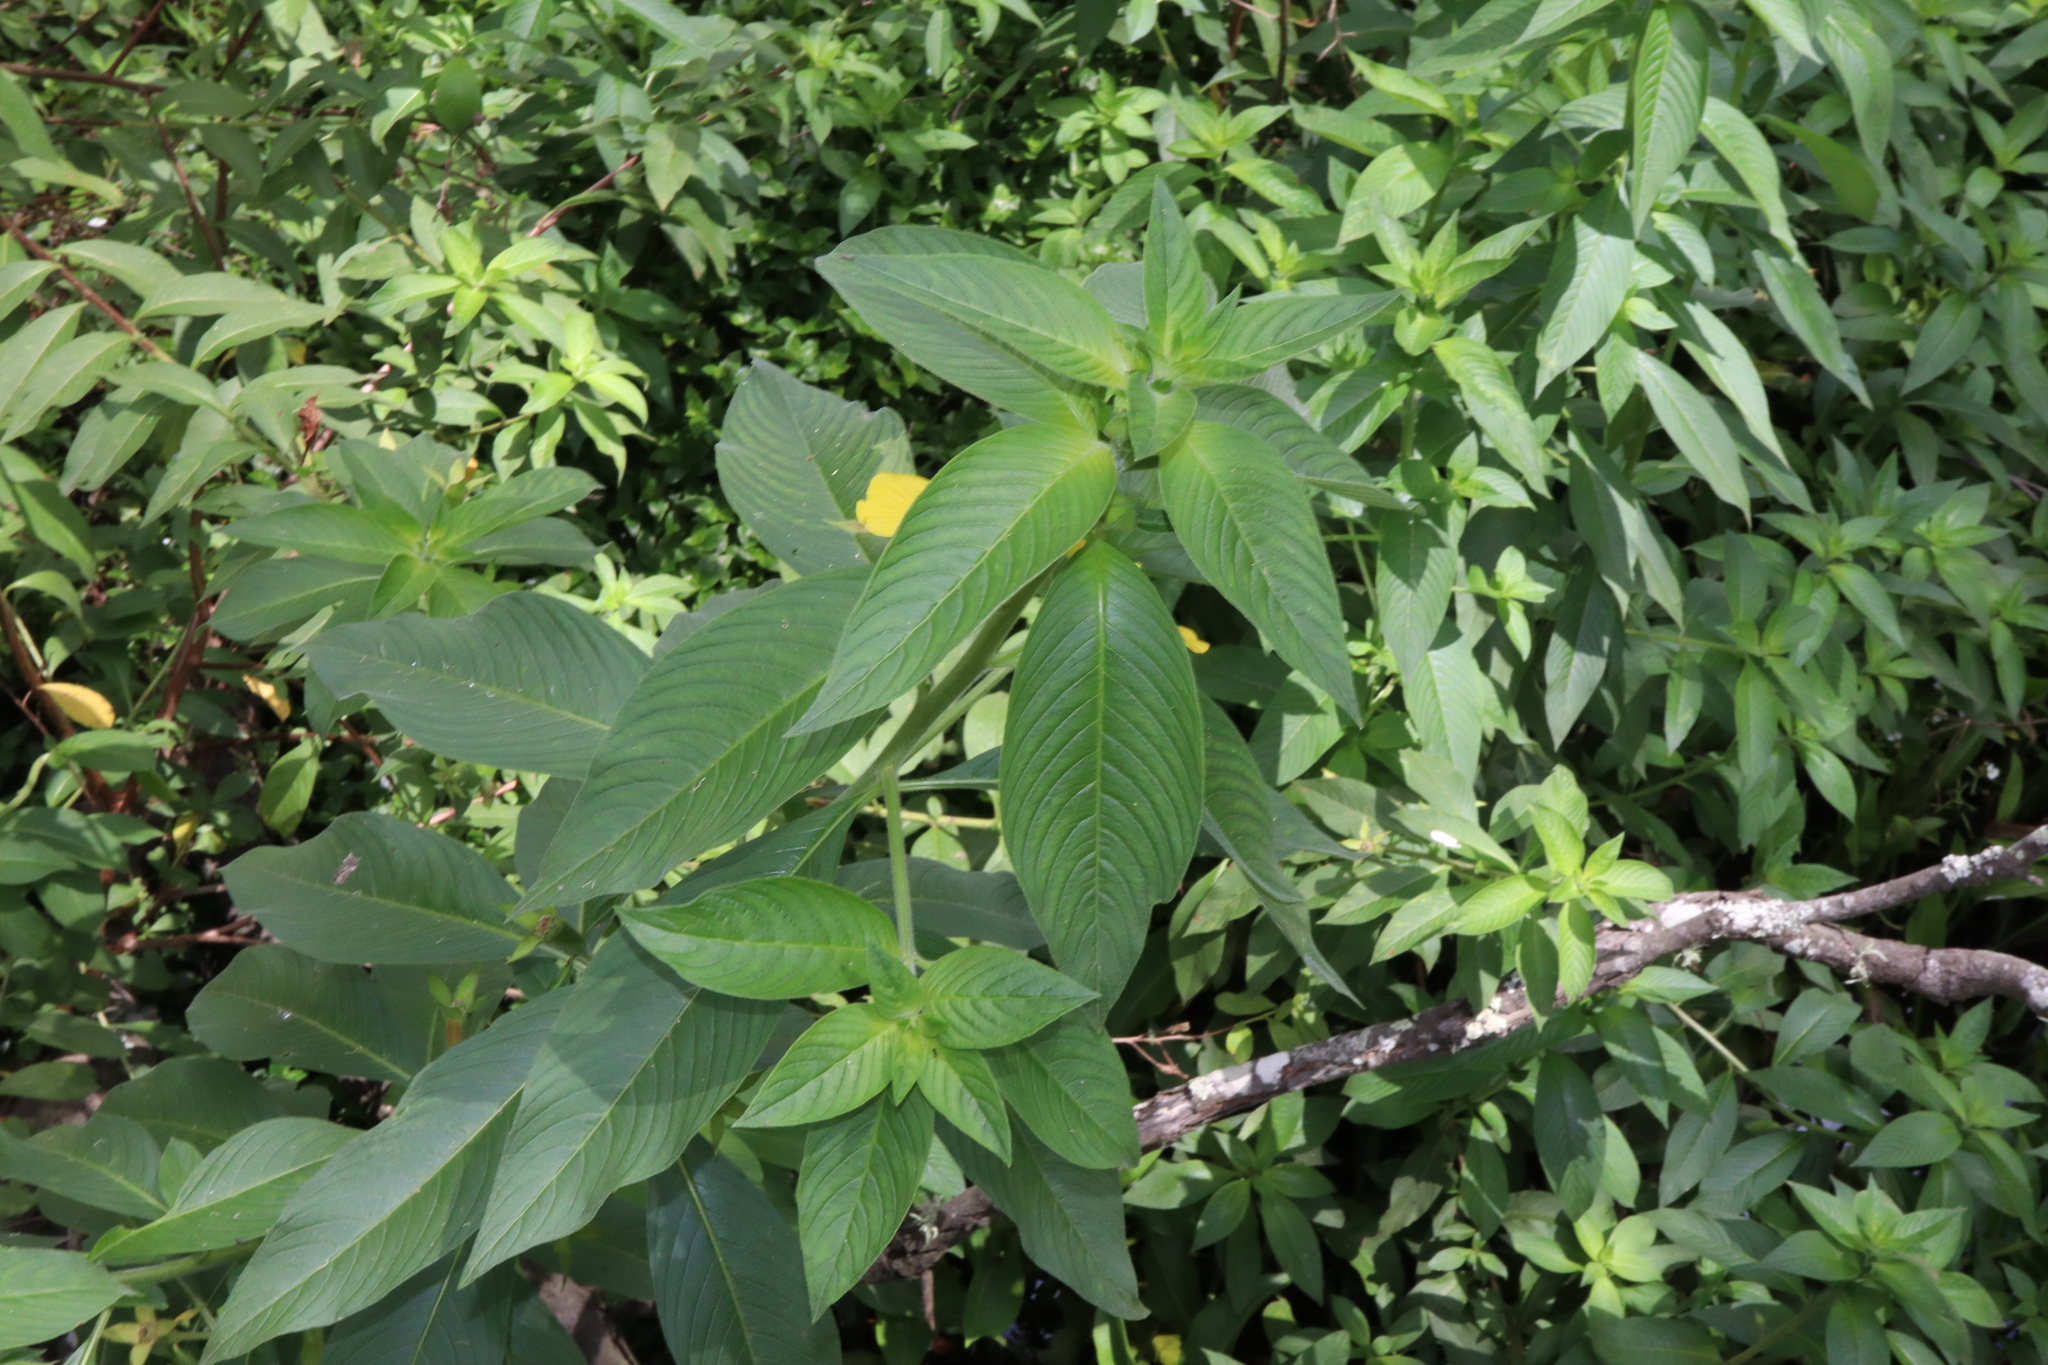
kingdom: Plantae
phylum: Tracheophyta
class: Magnoliopsida
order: Myrtales
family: Onagraceae
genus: Ludwigia
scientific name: Ludwigia peruviana
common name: Peruvian primrose-willow
